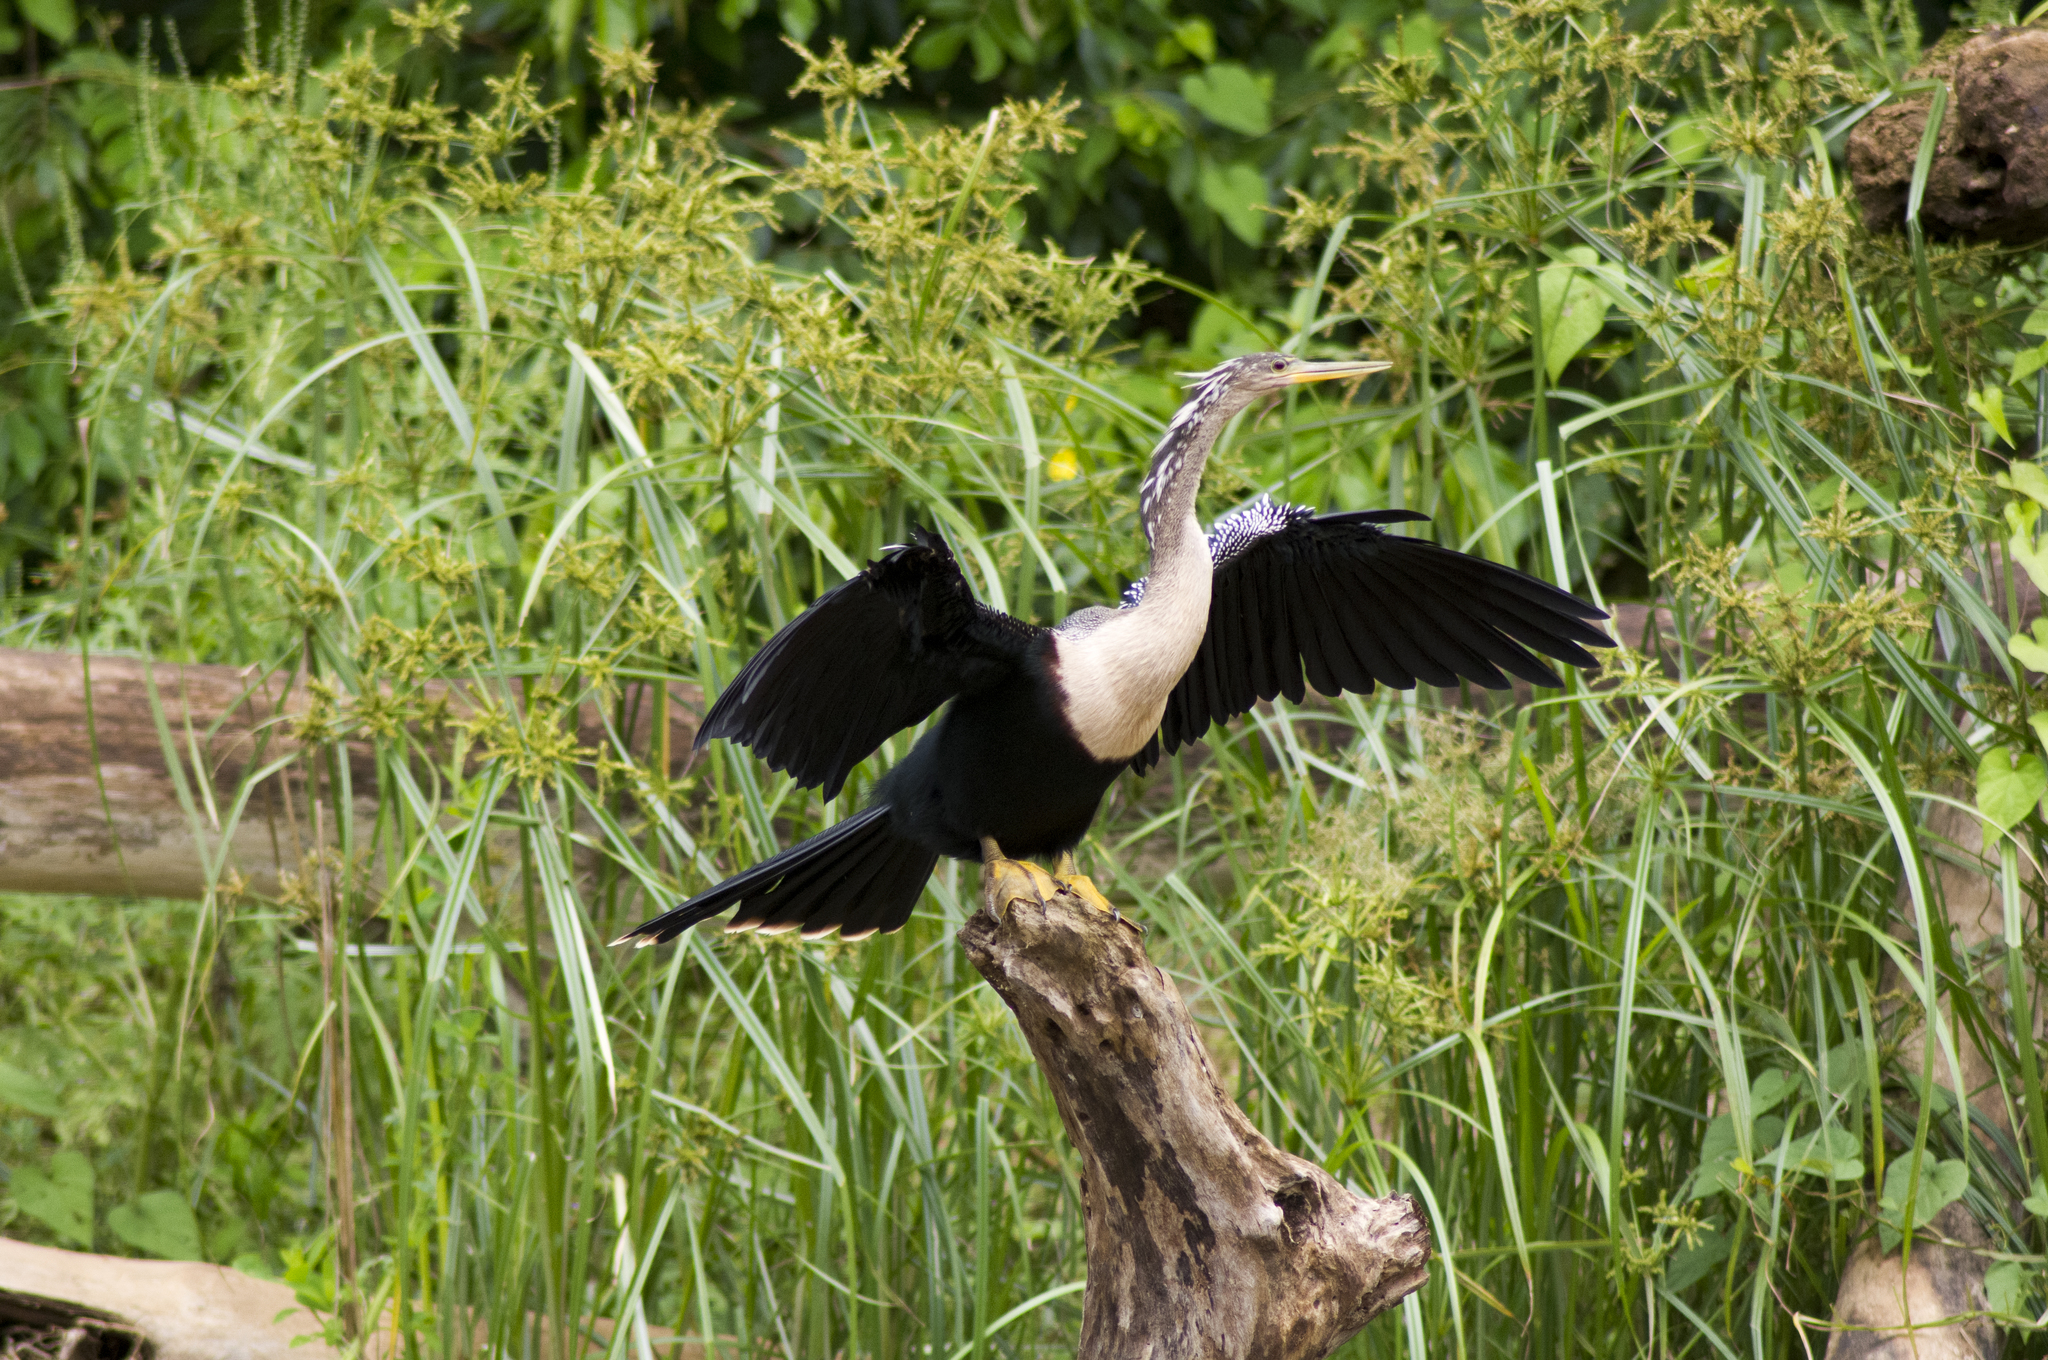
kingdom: Animalia
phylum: Chordata
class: Aves
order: Suliformes
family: Anhingidae
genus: Anhinga
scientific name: Anhinga anhinga
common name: Anhinga
